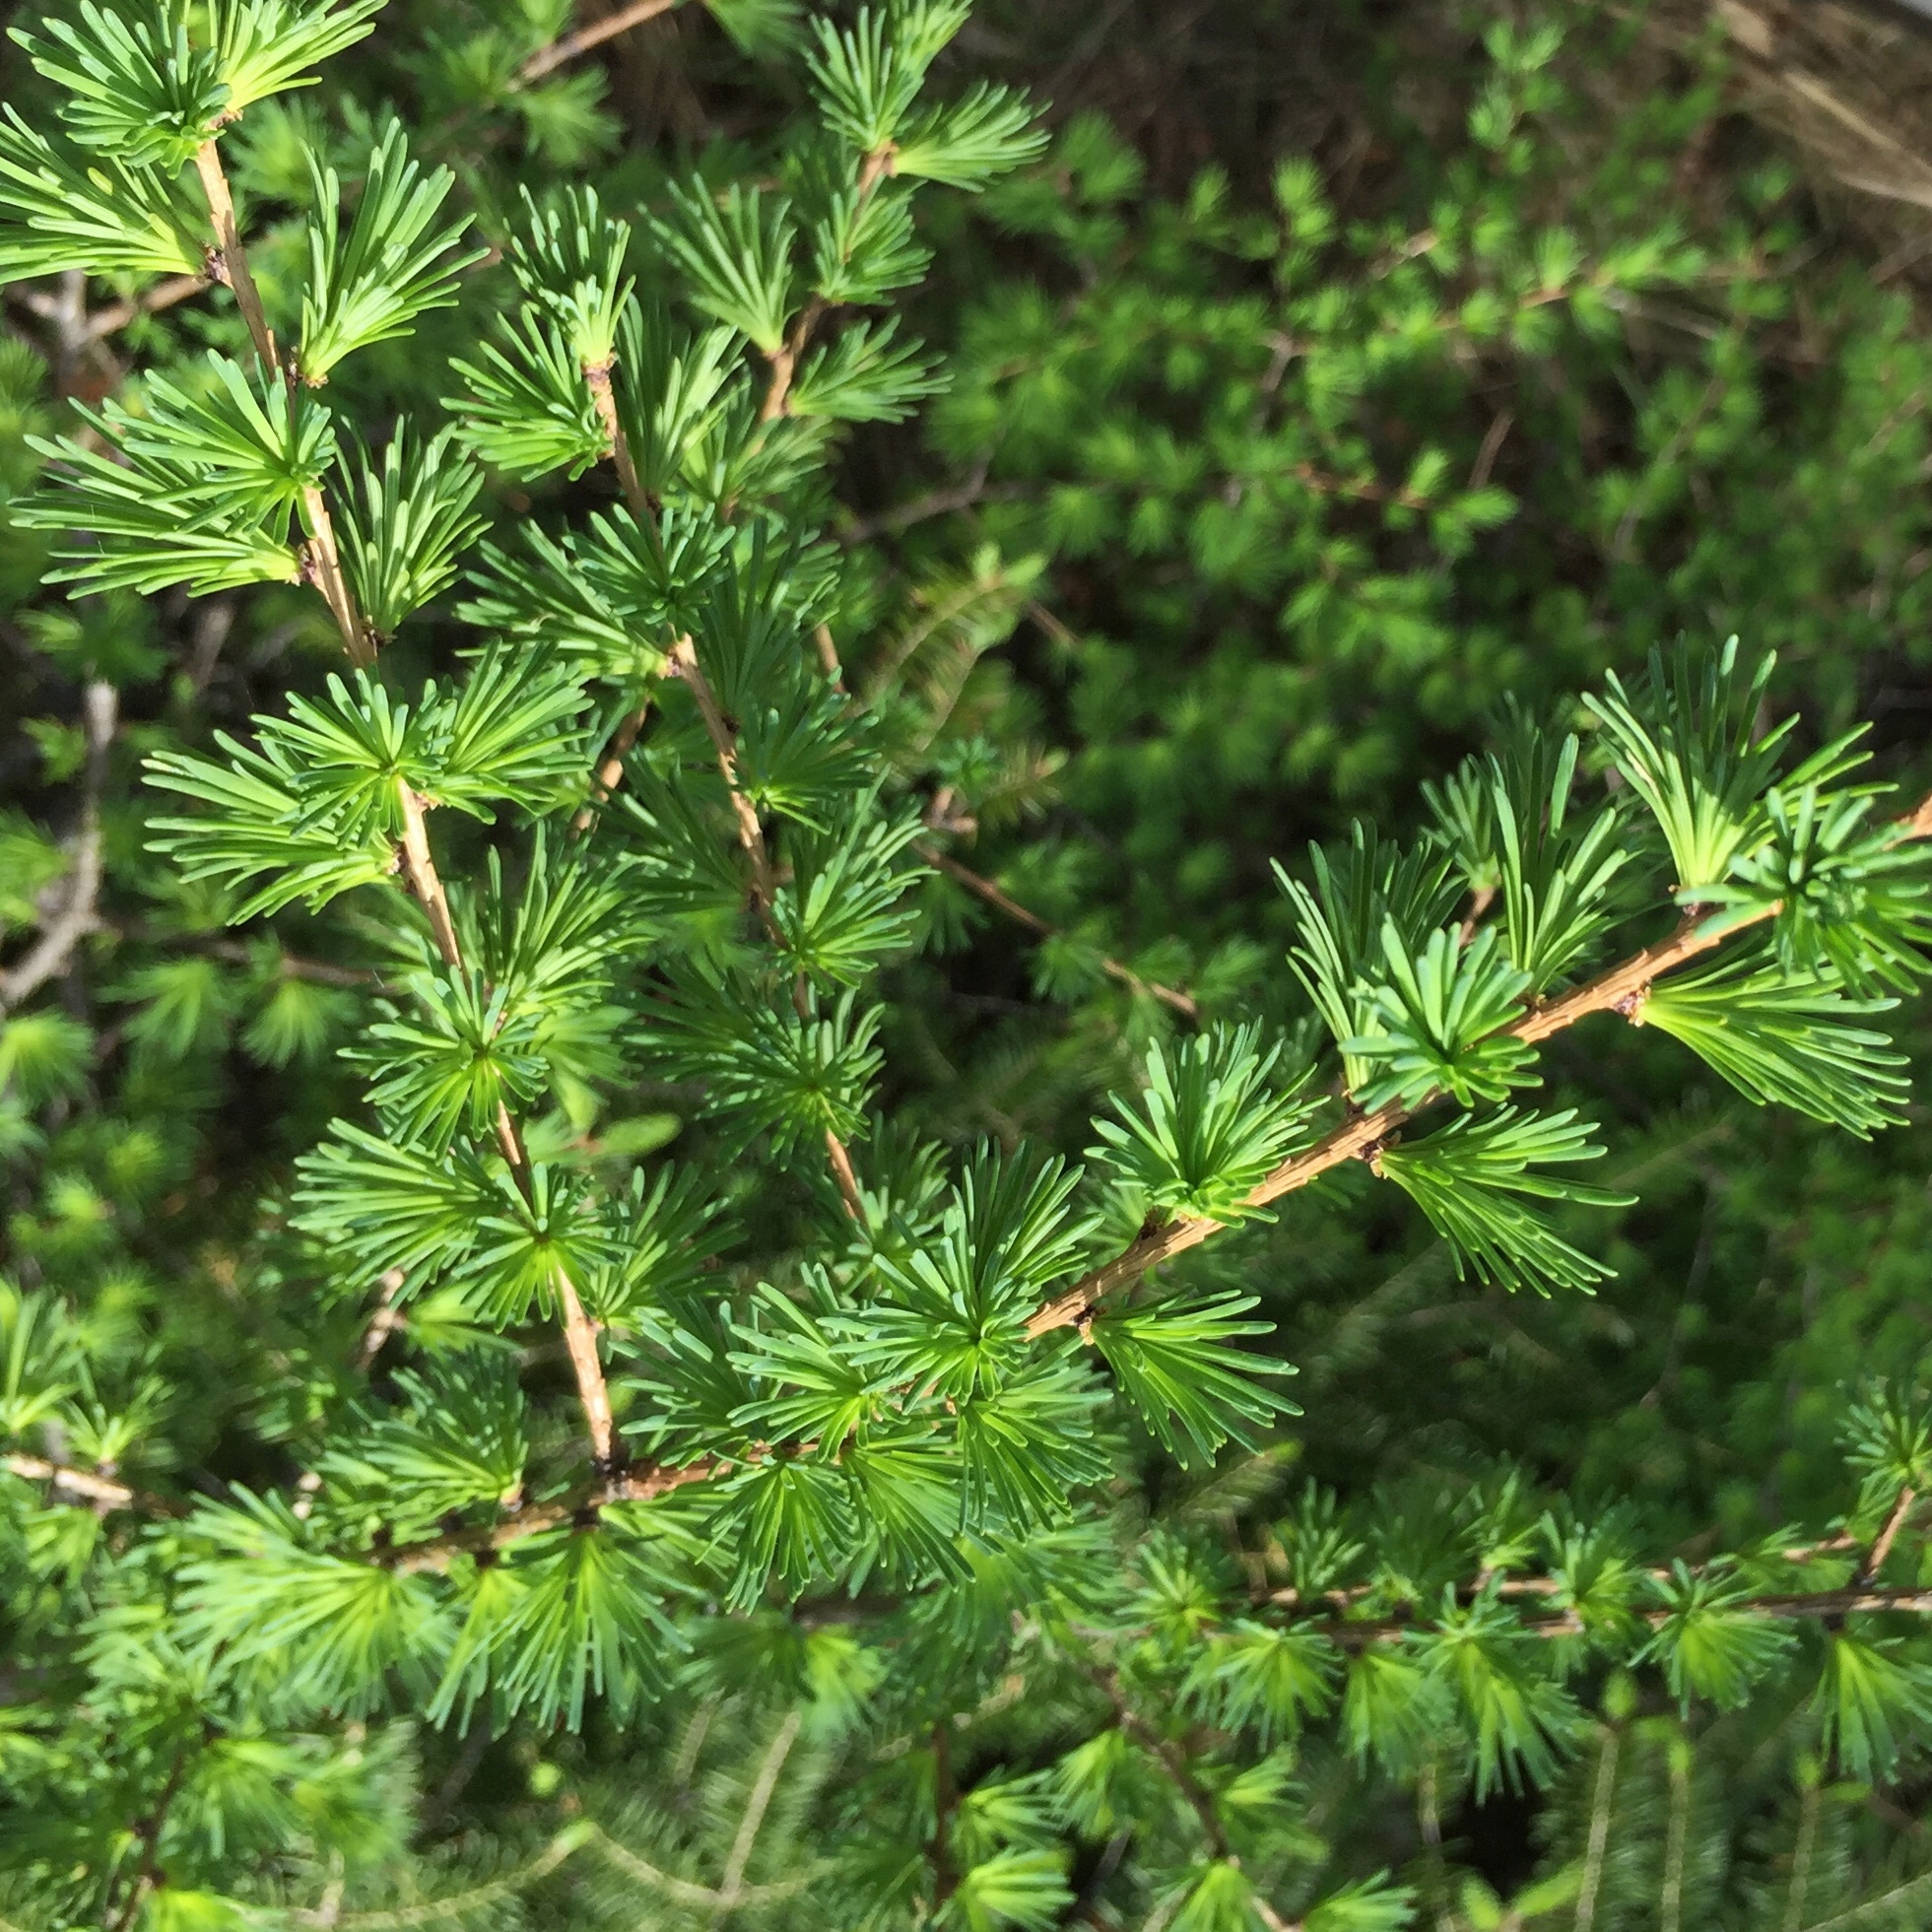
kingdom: Plantae
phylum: Tracheophyta
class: Pinopsida
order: Pinales
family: Pinaceae
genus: Larix
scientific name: Larix laricina
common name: American larch
